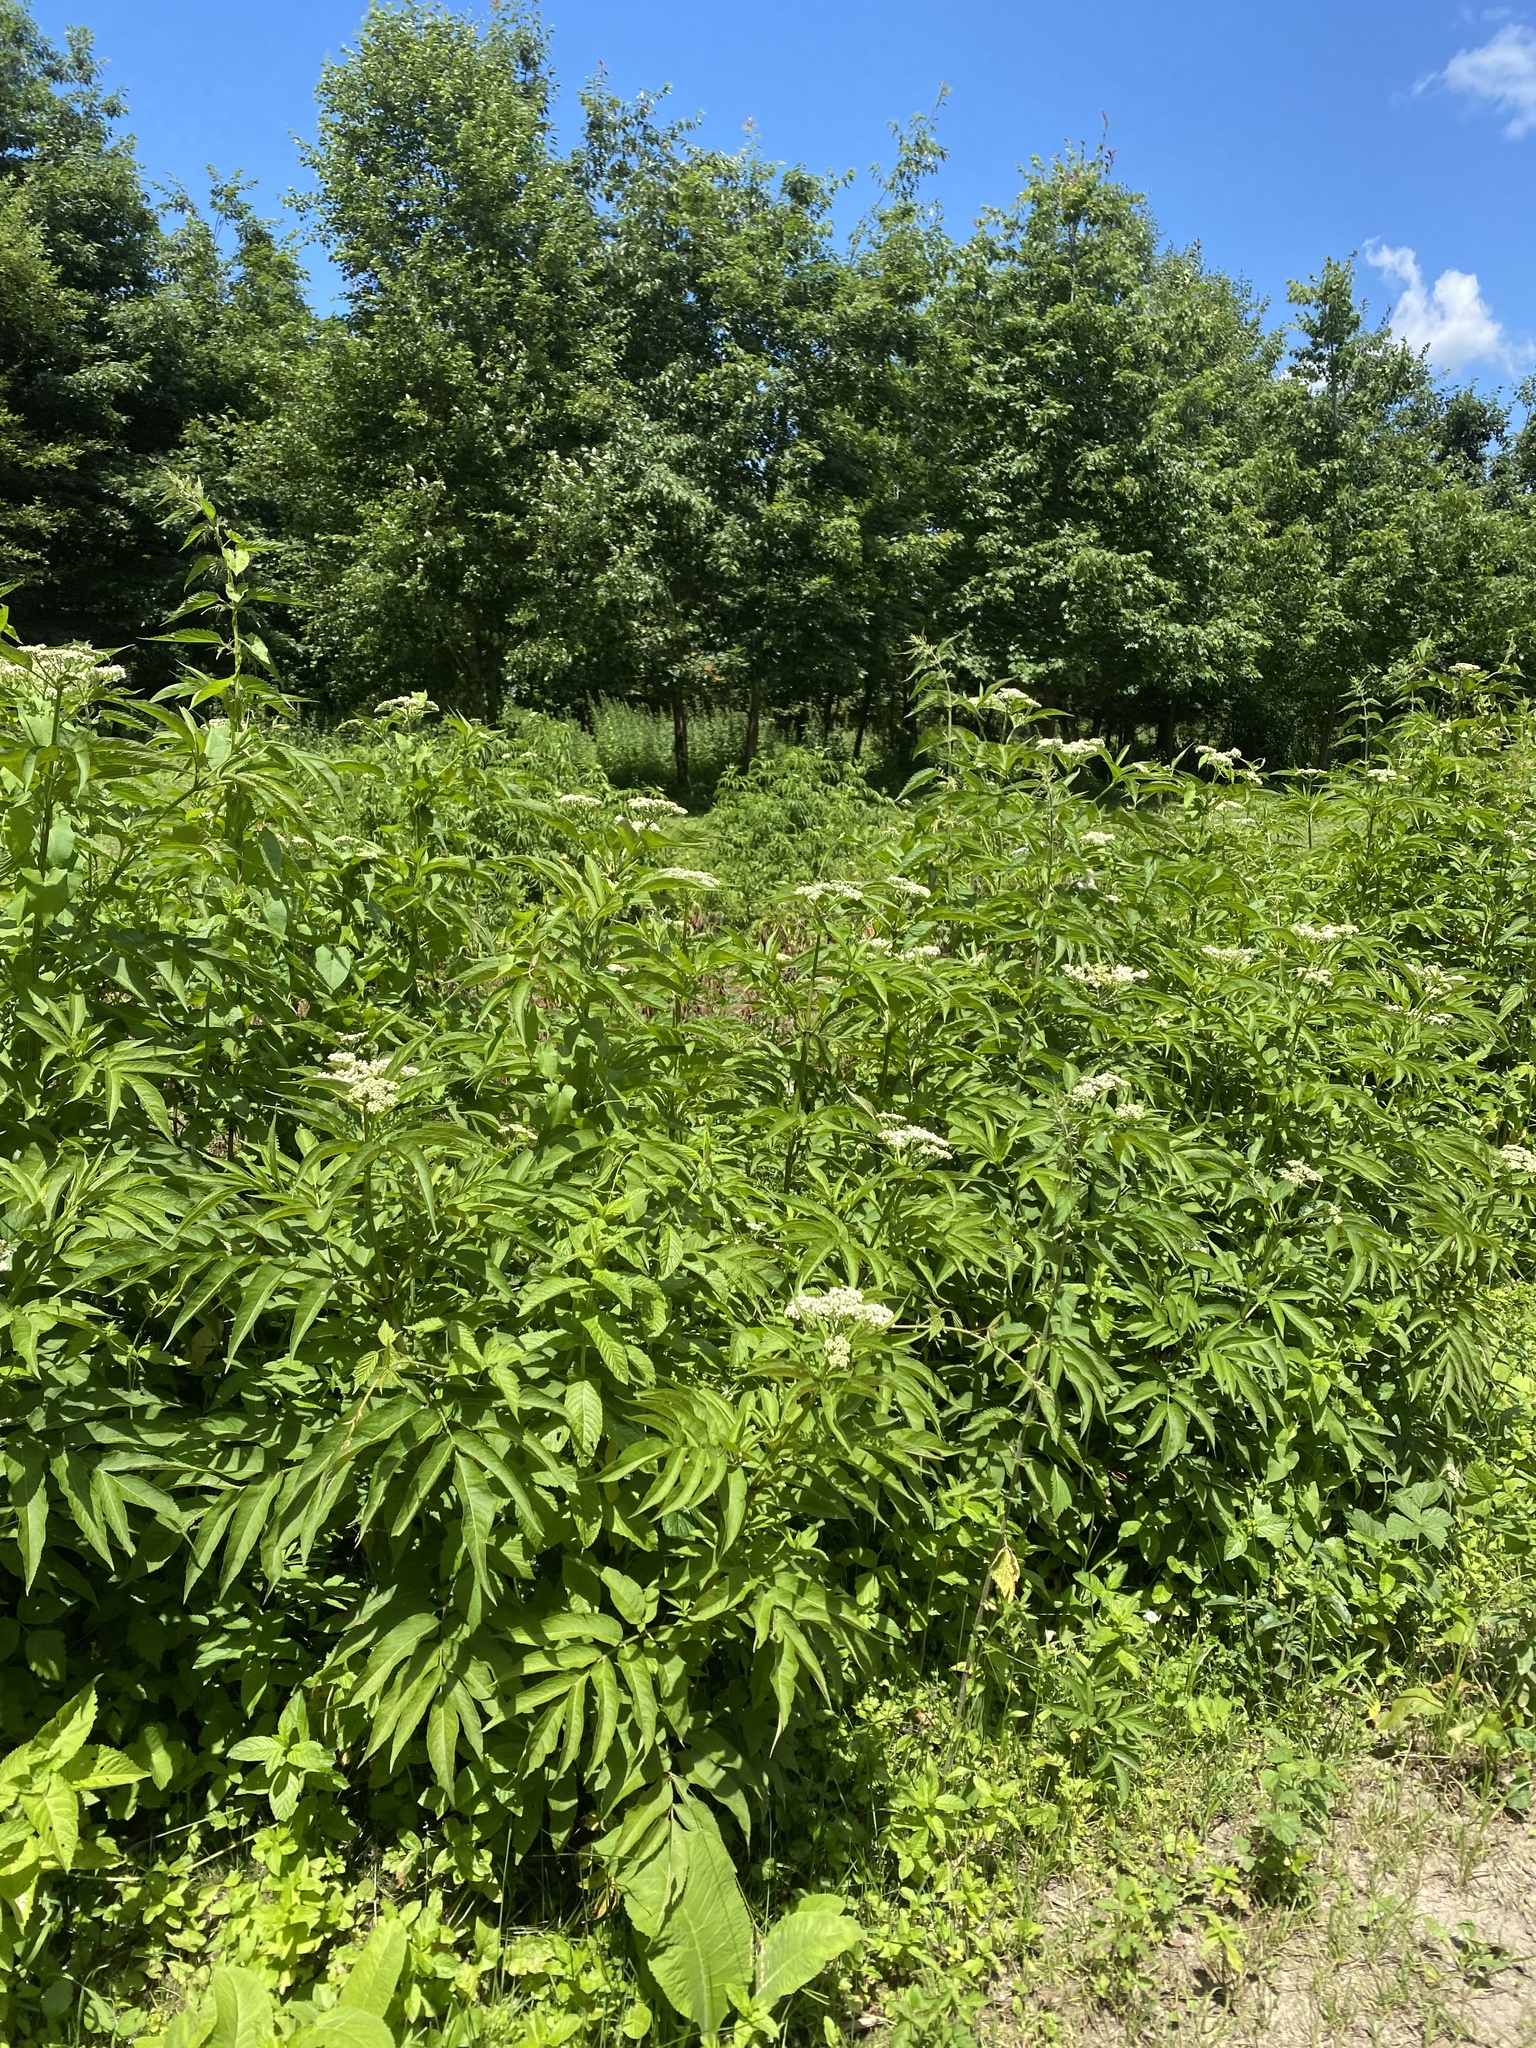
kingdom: Plantae
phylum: Tracheophyta
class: Magnoliopsida
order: Dipsacales
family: Viburnaceae
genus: Sambucus
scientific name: Sambucus ebulus
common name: Dwarf elder
